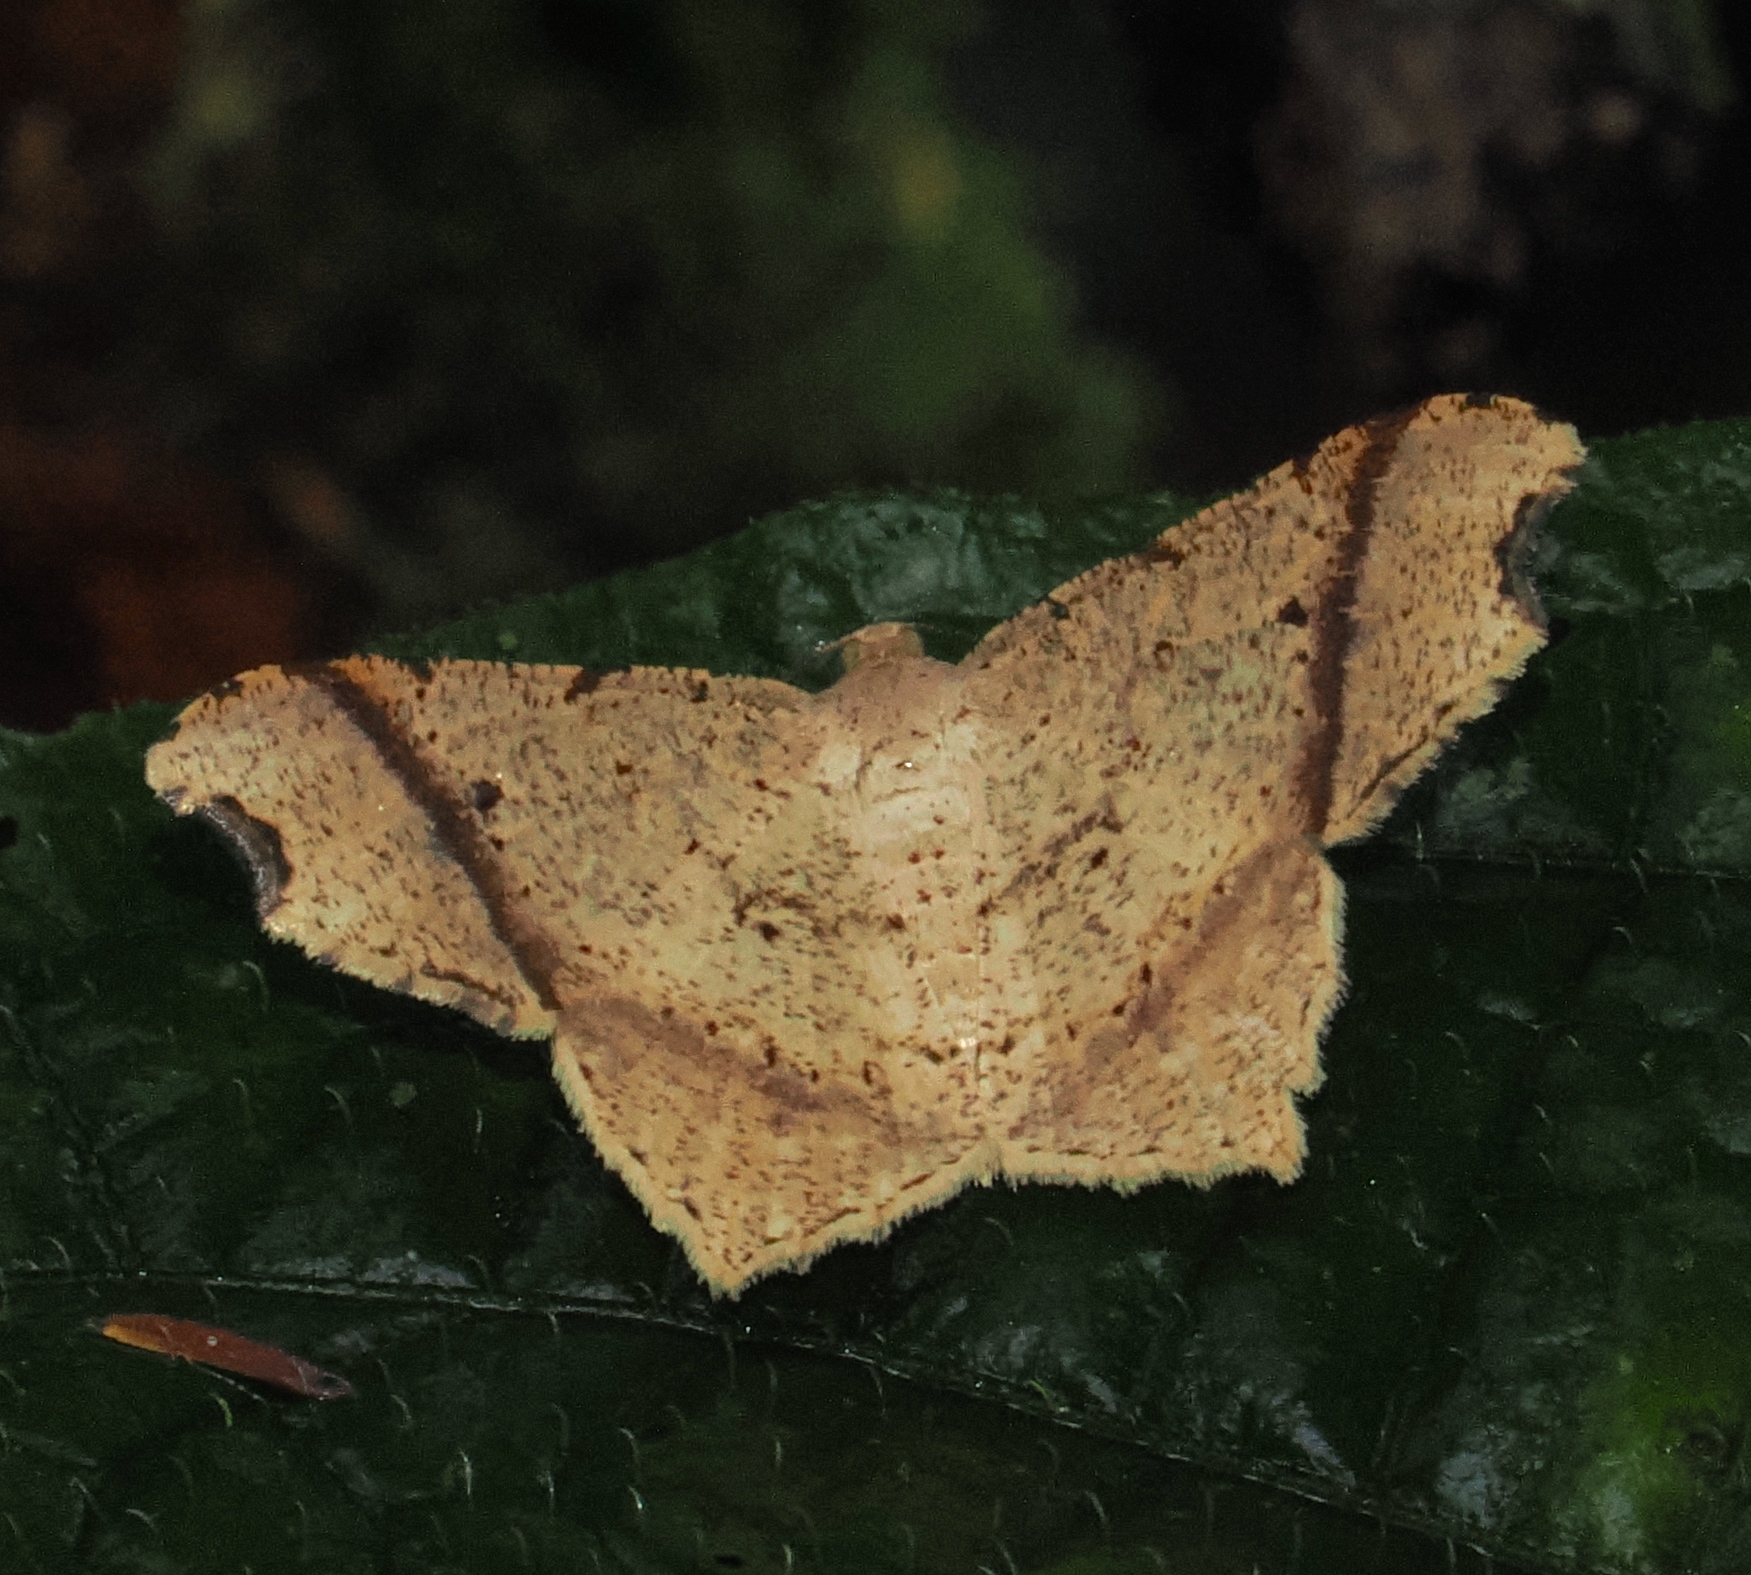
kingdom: Animalia
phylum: Arthropoda
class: Insecta
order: Lepidoptera
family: Geometridae
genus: Macaria
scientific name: Macaria catualda
